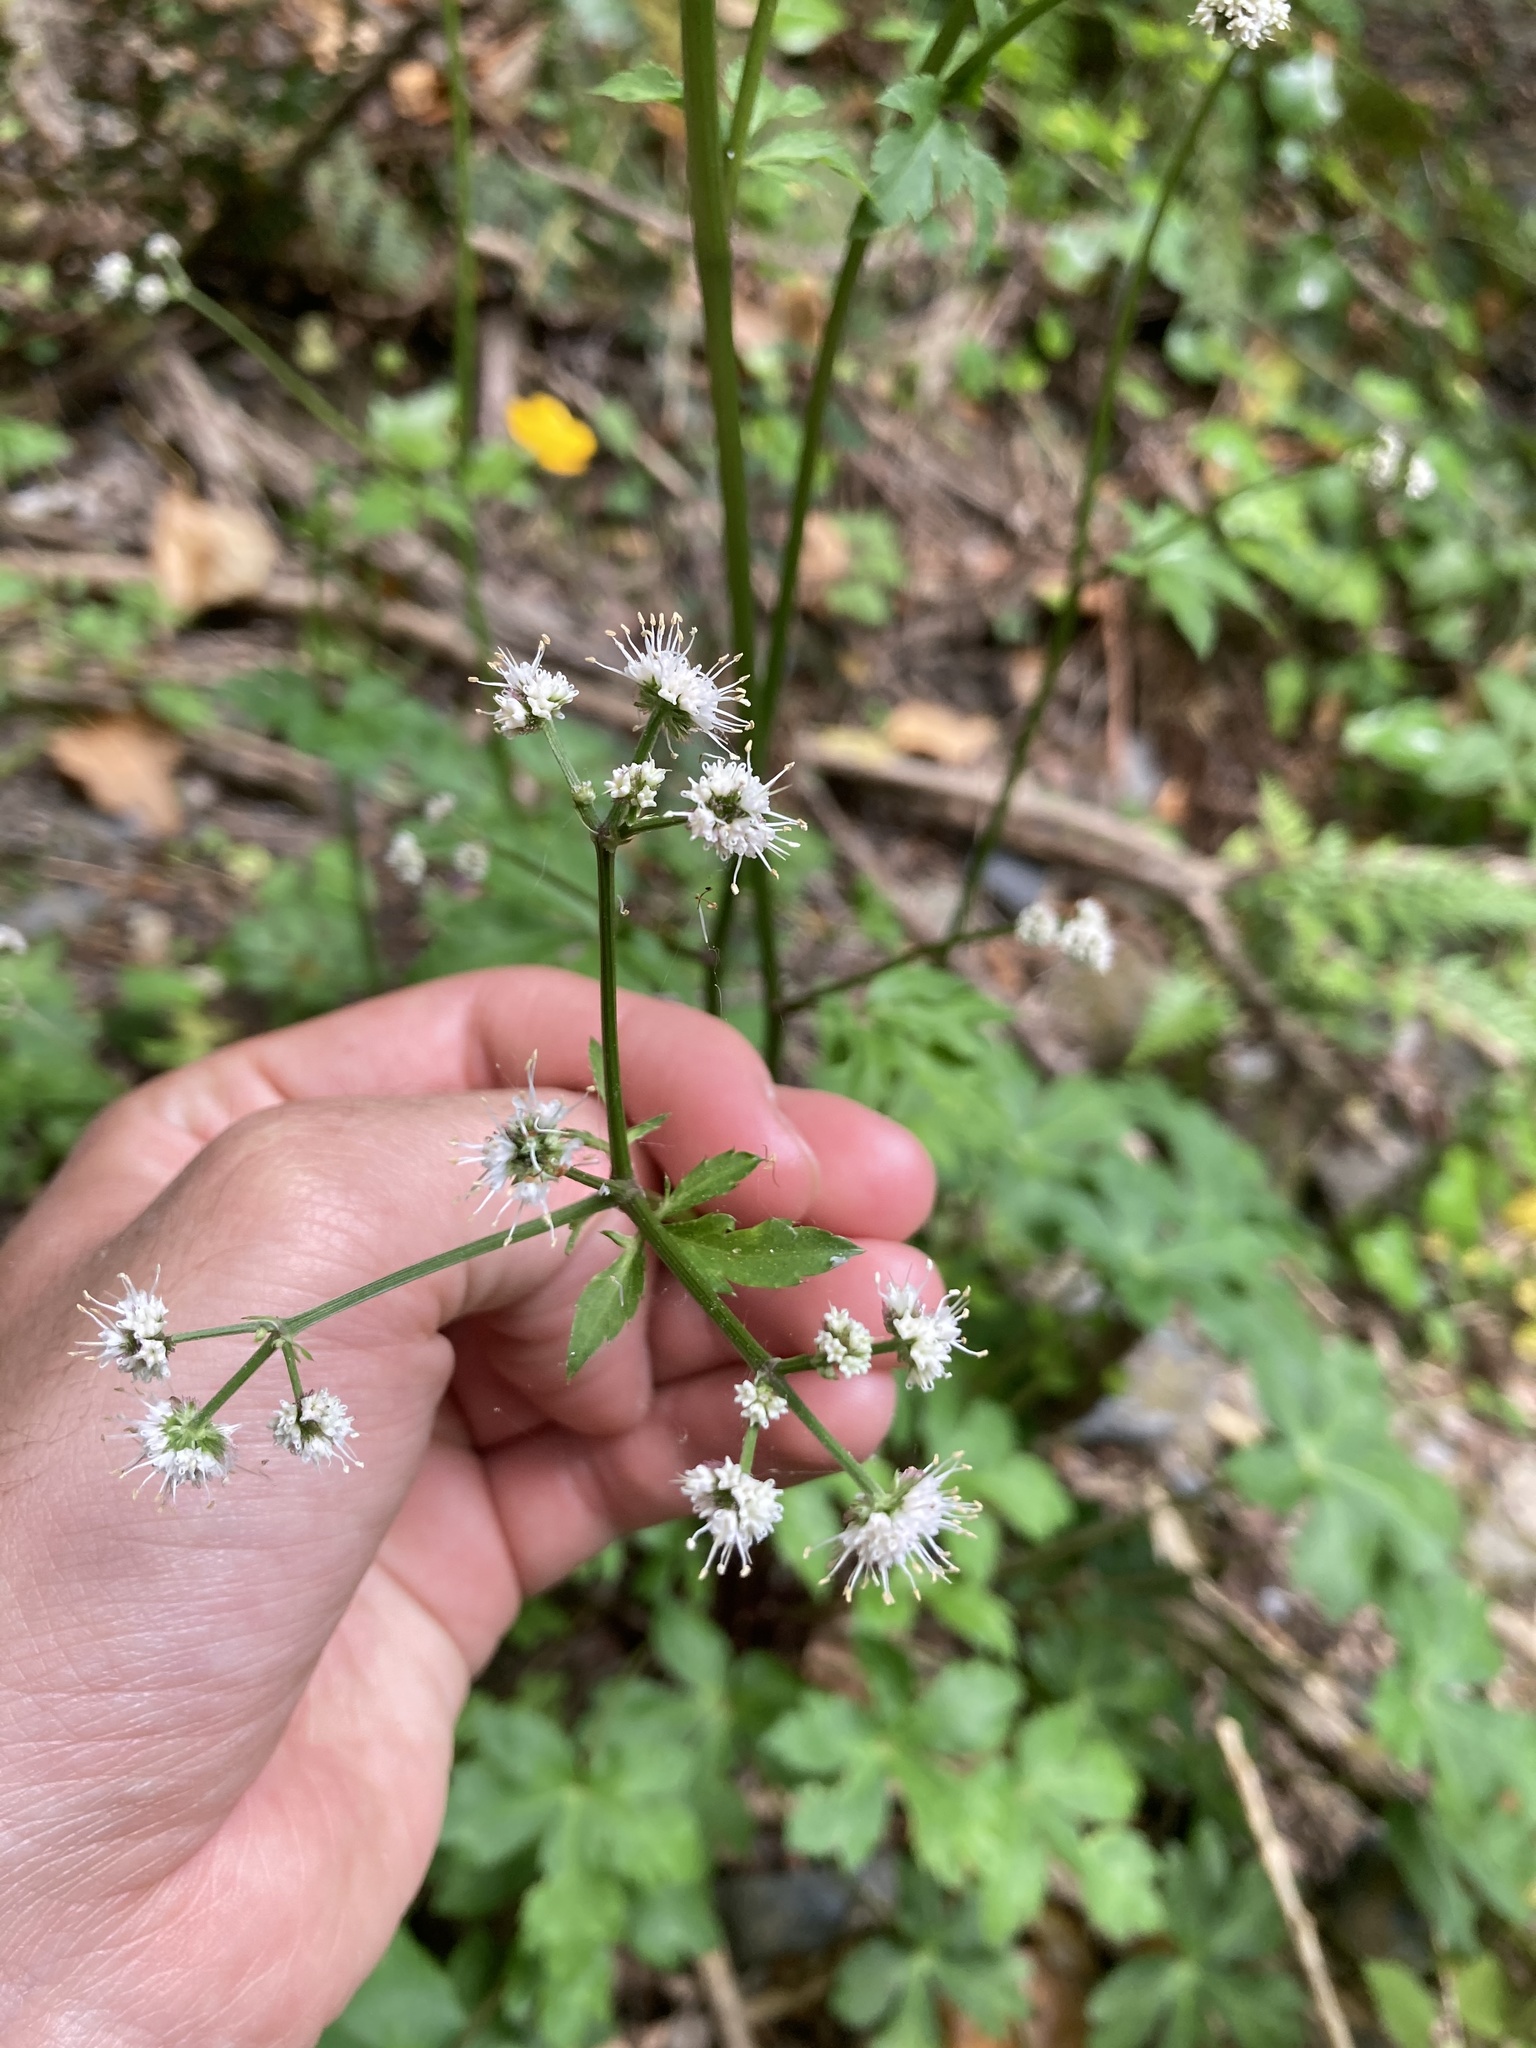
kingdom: Plantae
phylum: Tracheophyta
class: Magnoliopsida
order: Apiales
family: Apiaceae
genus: Sanicula
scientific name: Sanicula europaea
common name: Sanicle
